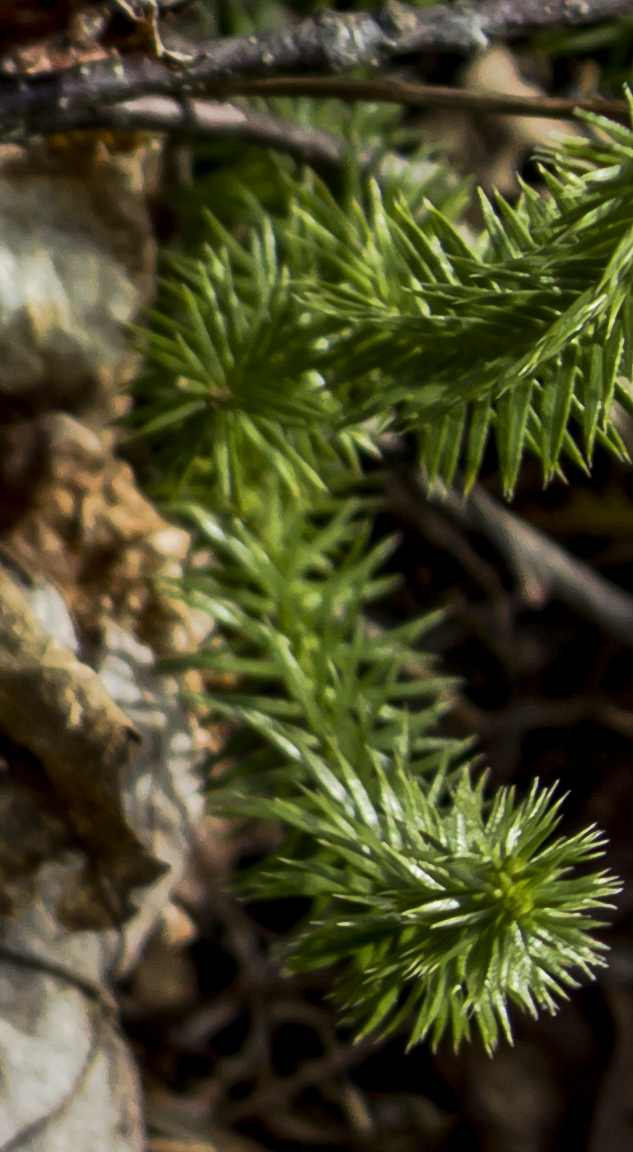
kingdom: Plantae
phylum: Tracheophyta
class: Lycopodiopsida
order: Lycopodiales
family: Lycopodiaceae
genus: Huperzia
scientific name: Huperzia lucidula
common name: Shining clubmoss
